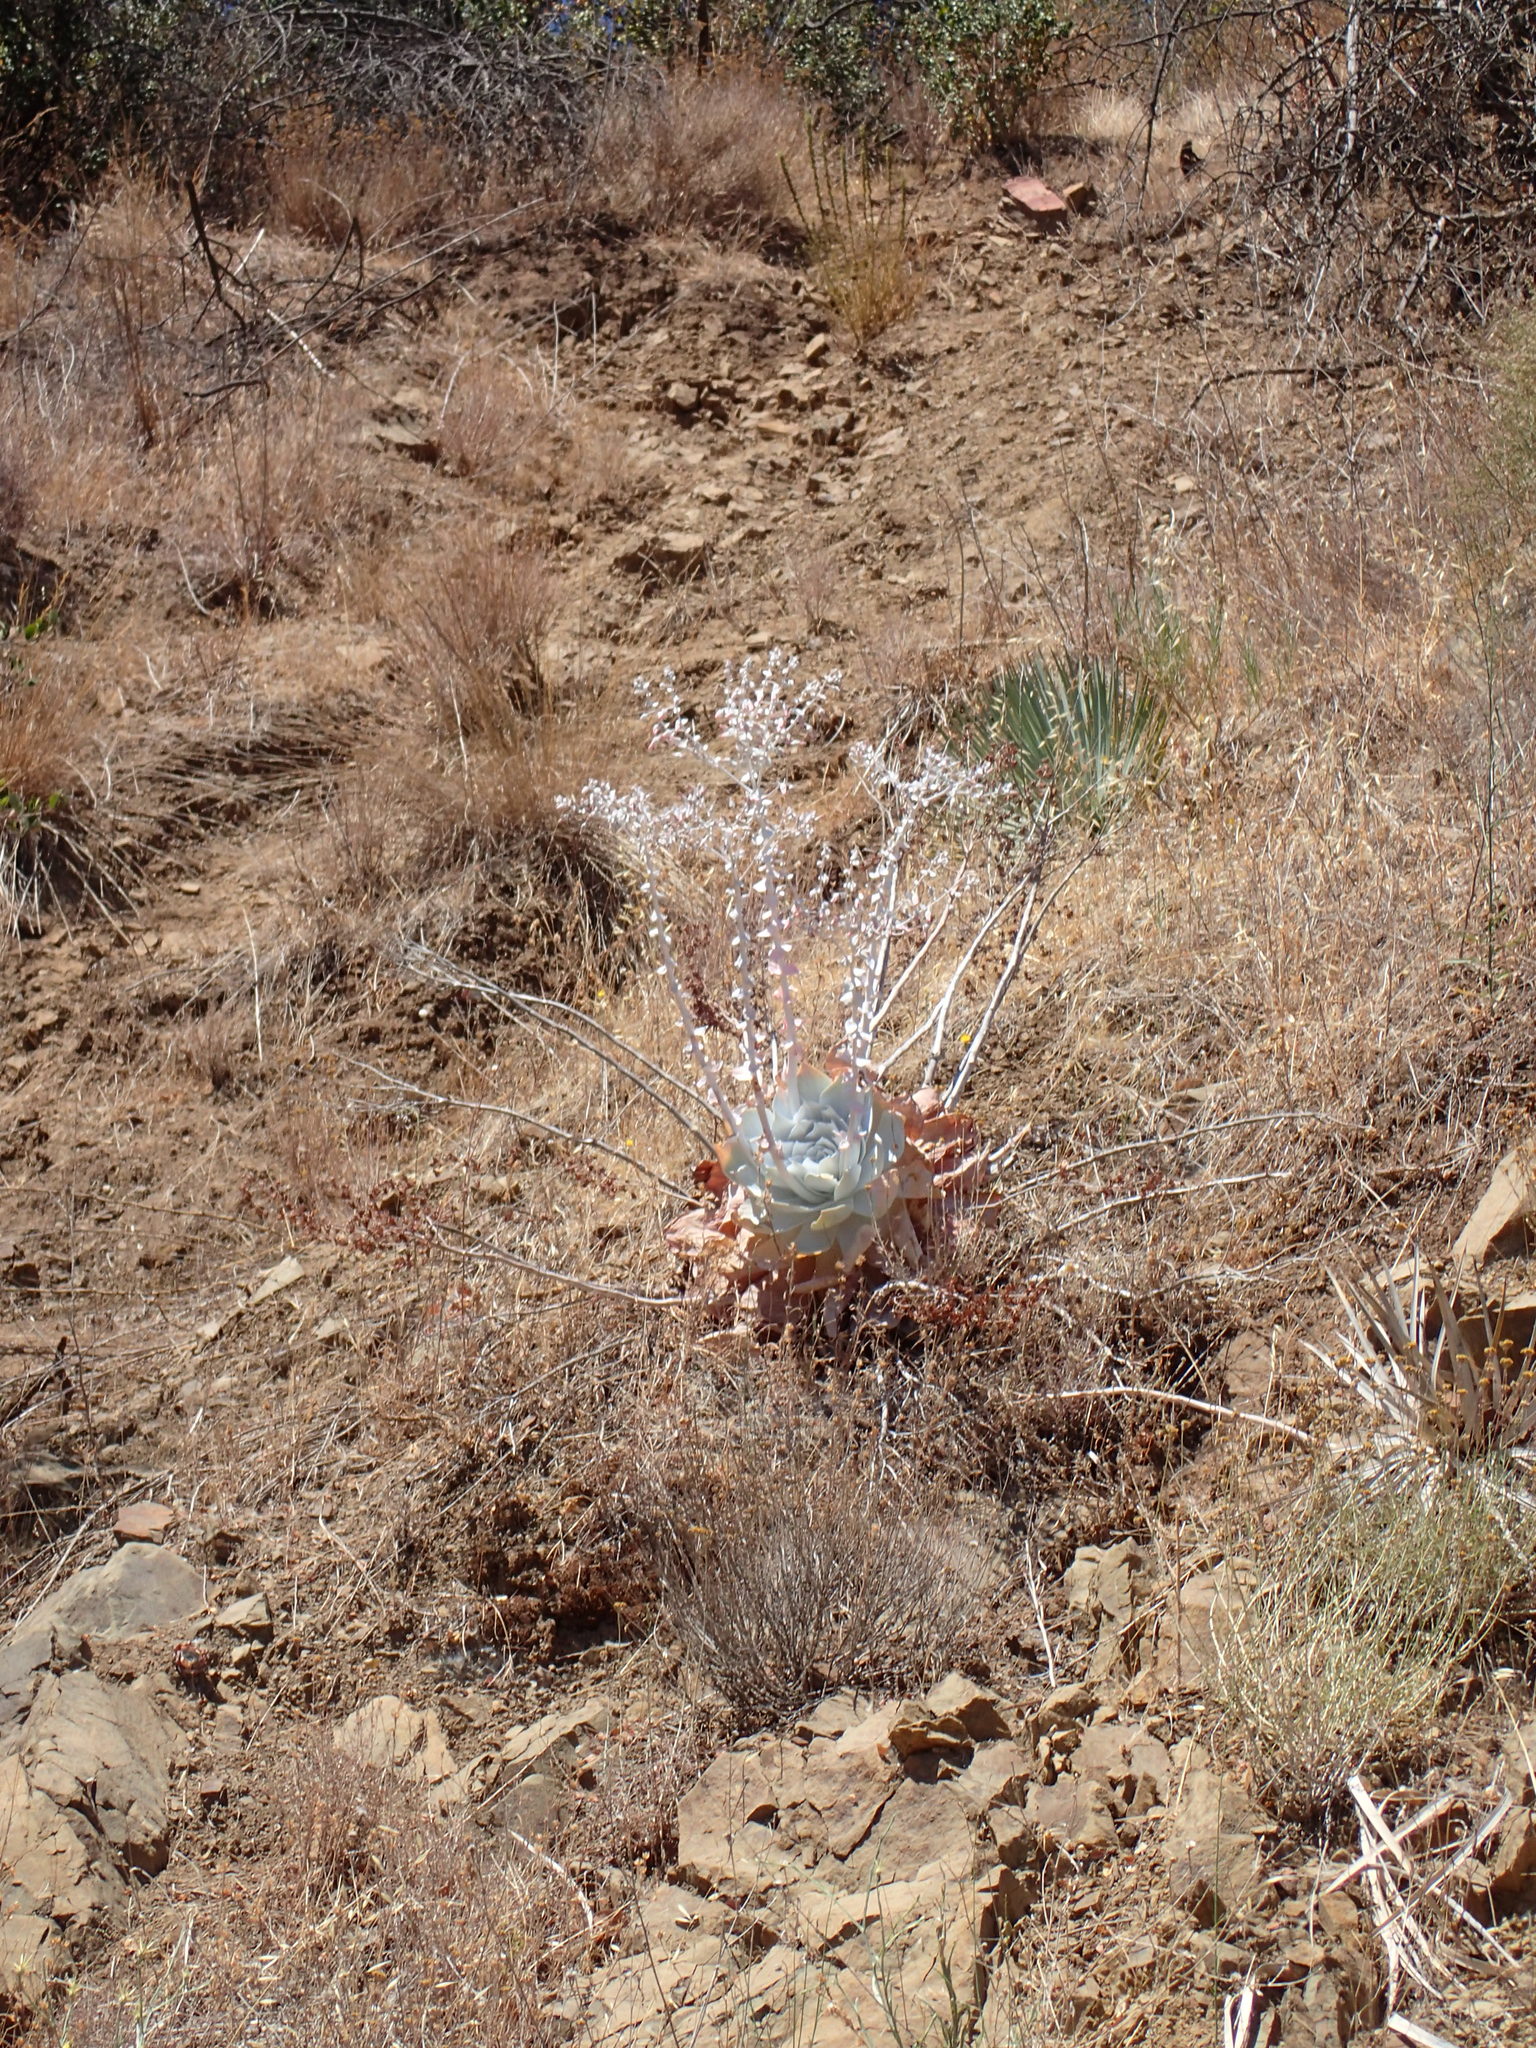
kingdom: Plantae
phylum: Tracheophyta
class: Magnoliopsida
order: Saxifragales
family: Crassulaceae
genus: Dudleya
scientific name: Dudleya pulverulenta
